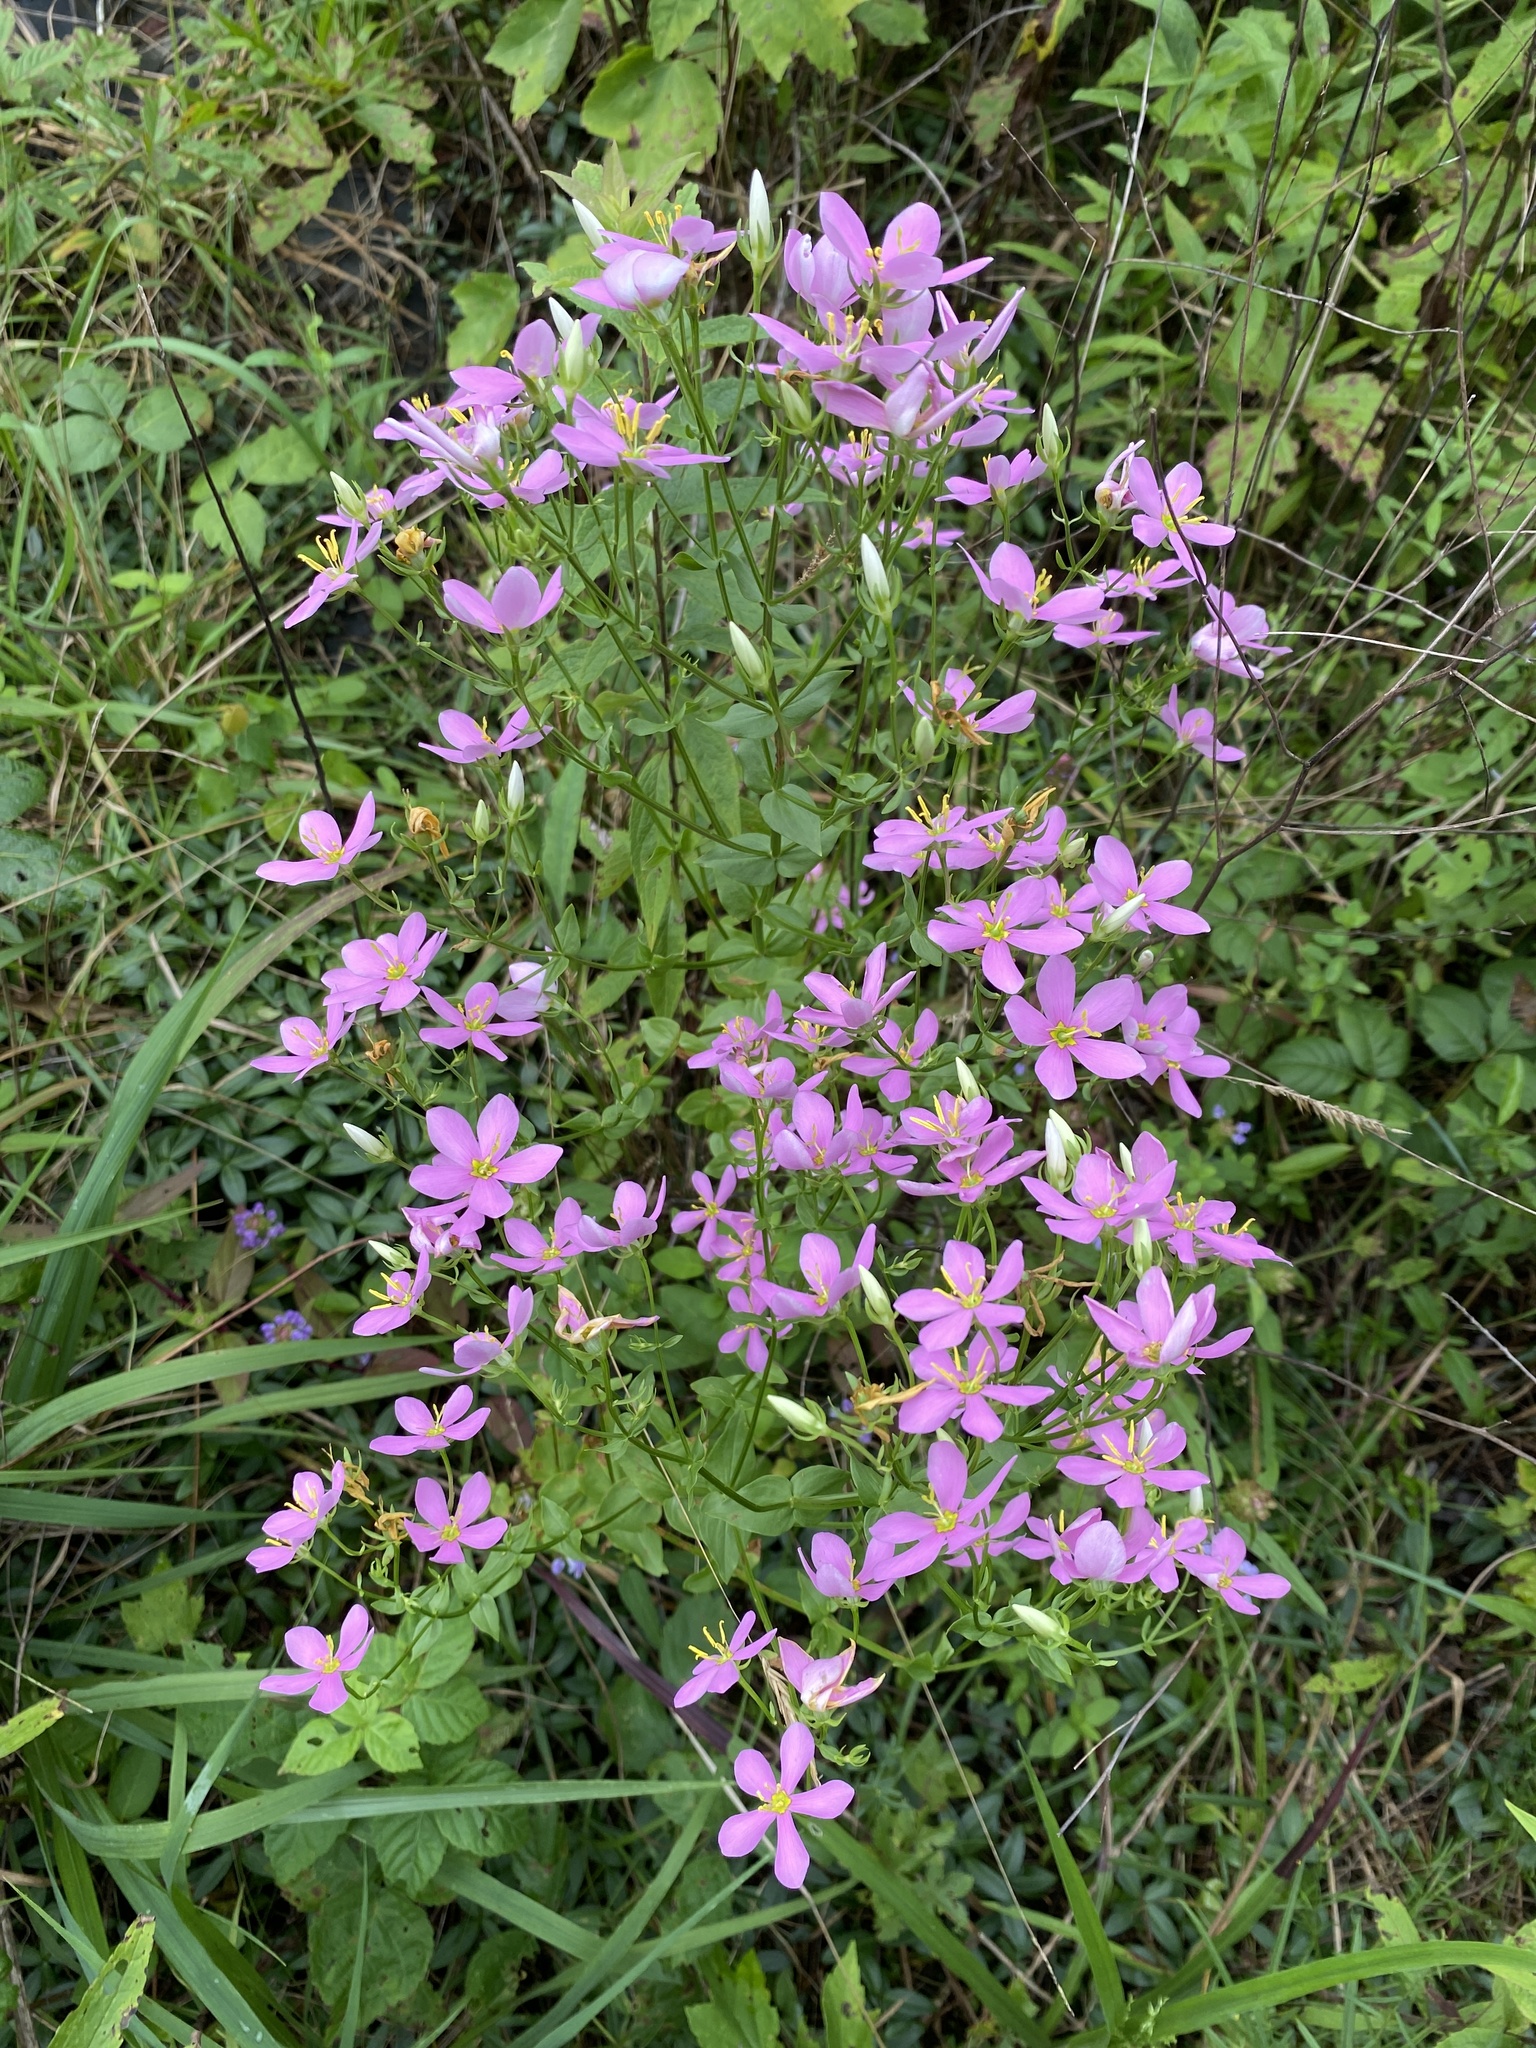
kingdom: Plantae
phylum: Tracheophyta
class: Magnoliopsida
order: Gentianales
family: Gentianaceae
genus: Sabatia
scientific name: Sabatia angularis
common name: Rose-pink
